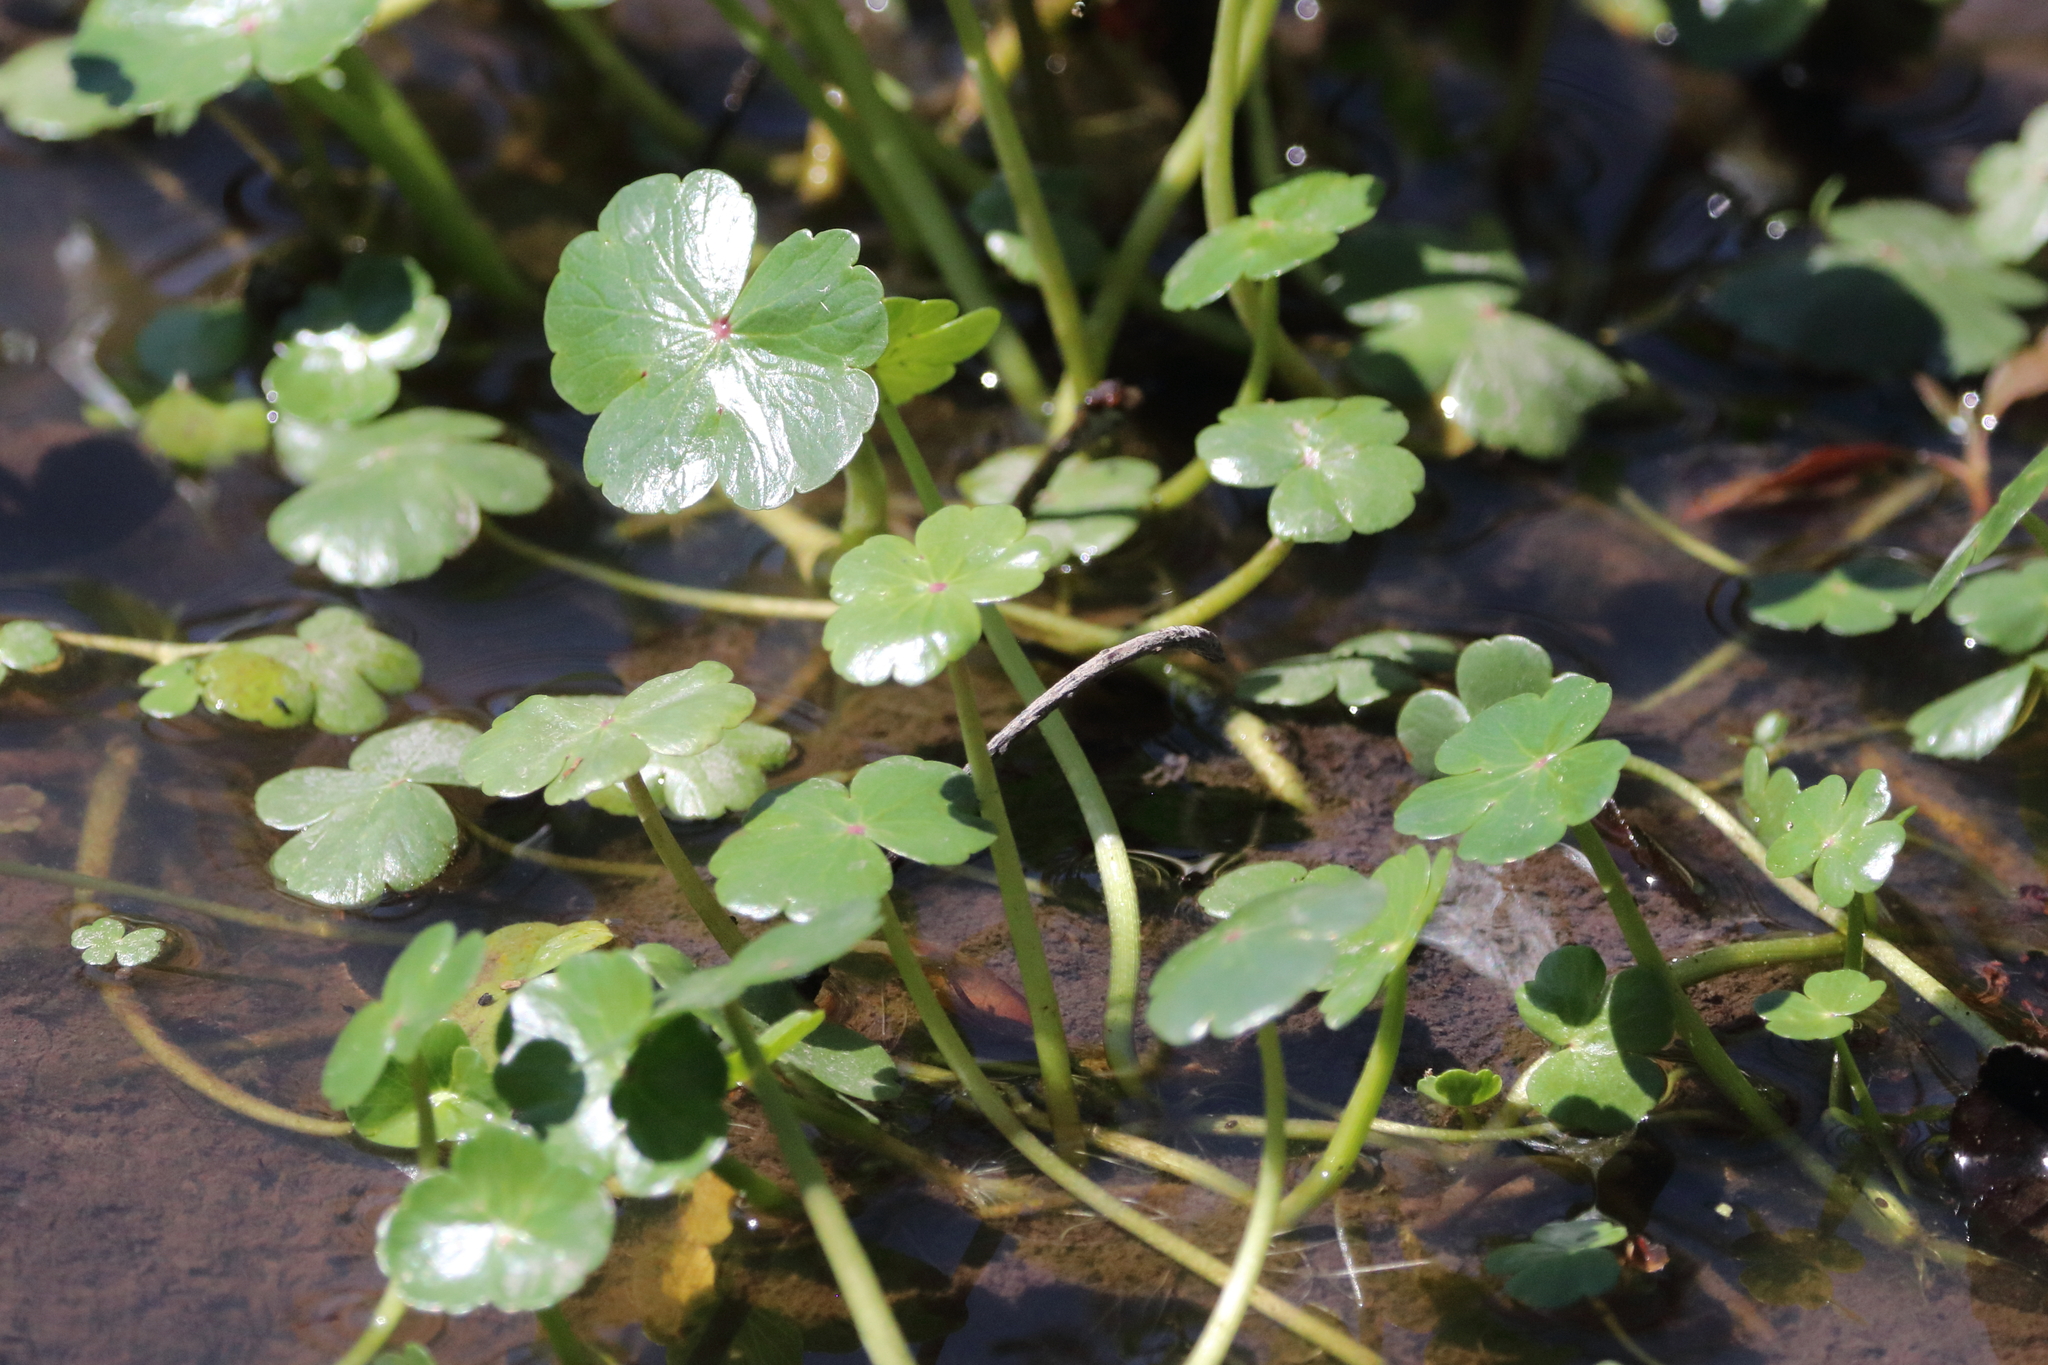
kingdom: Plantae
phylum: Tracheophyta
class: Magnoliopsida
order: Apiales
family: Araliaceae
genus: Hydrocotyle
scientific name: Hydrocotyle ranunculoides
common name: Floating pennywort
